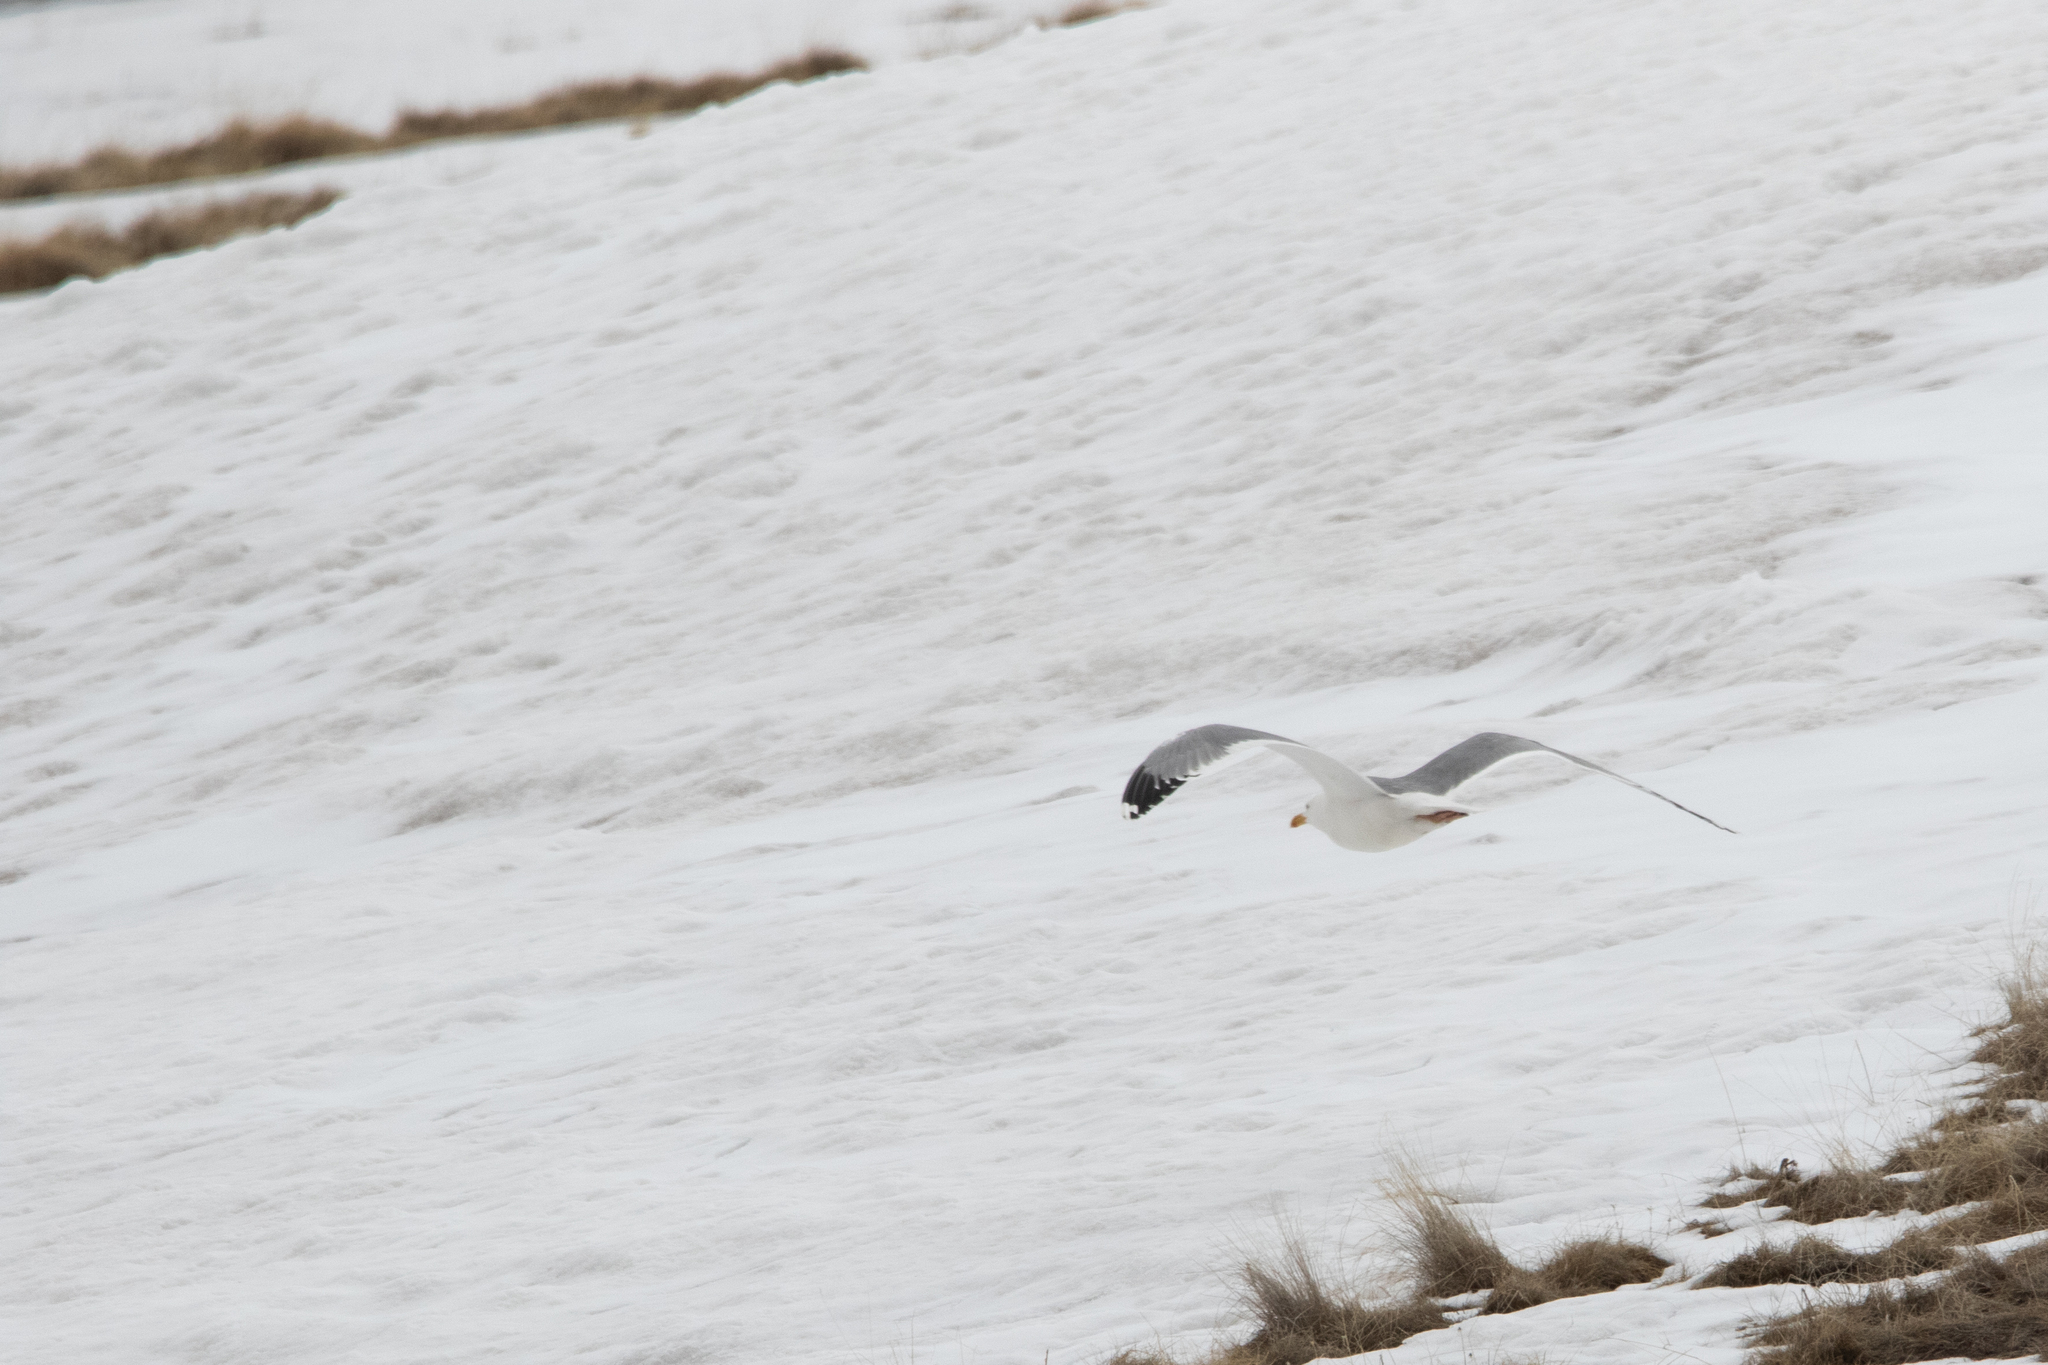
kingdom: Animalia
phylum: Chordata
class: Aves
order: Charadriiformes
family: Laridae
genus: Larus
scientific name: Larus argentatus
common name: Herring gull
